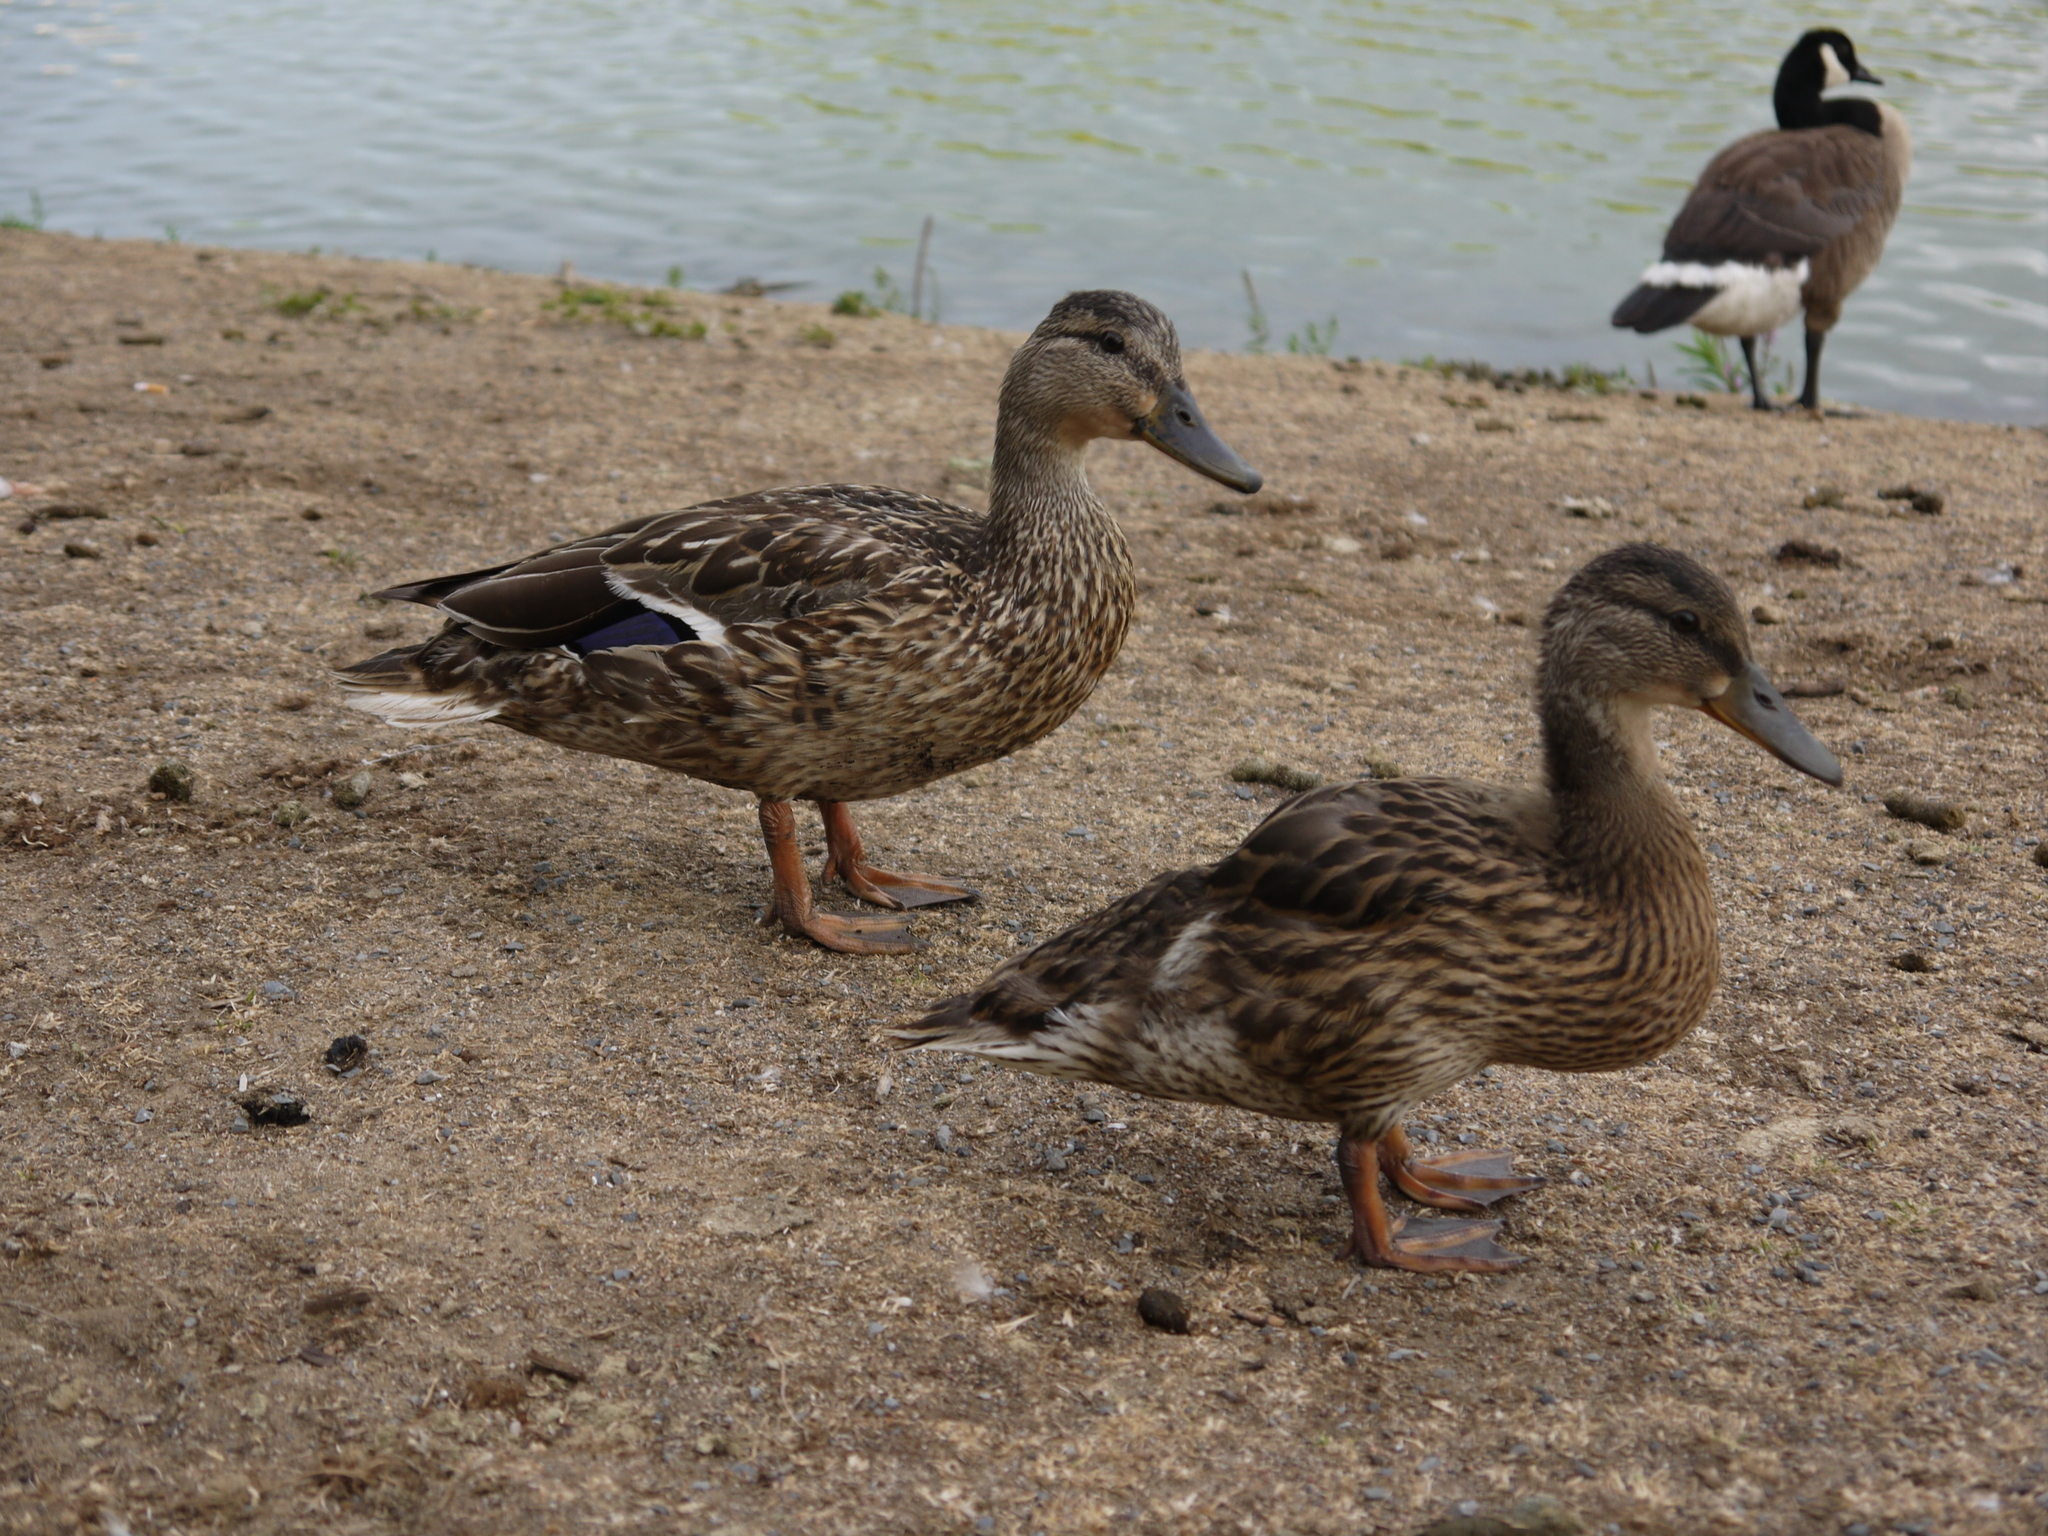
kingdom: Animalia
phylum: Chordata
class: Aves
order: Anseriformes
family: Anatidae
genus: Anas
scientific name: Anas platyrhynchos
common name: Mallard
